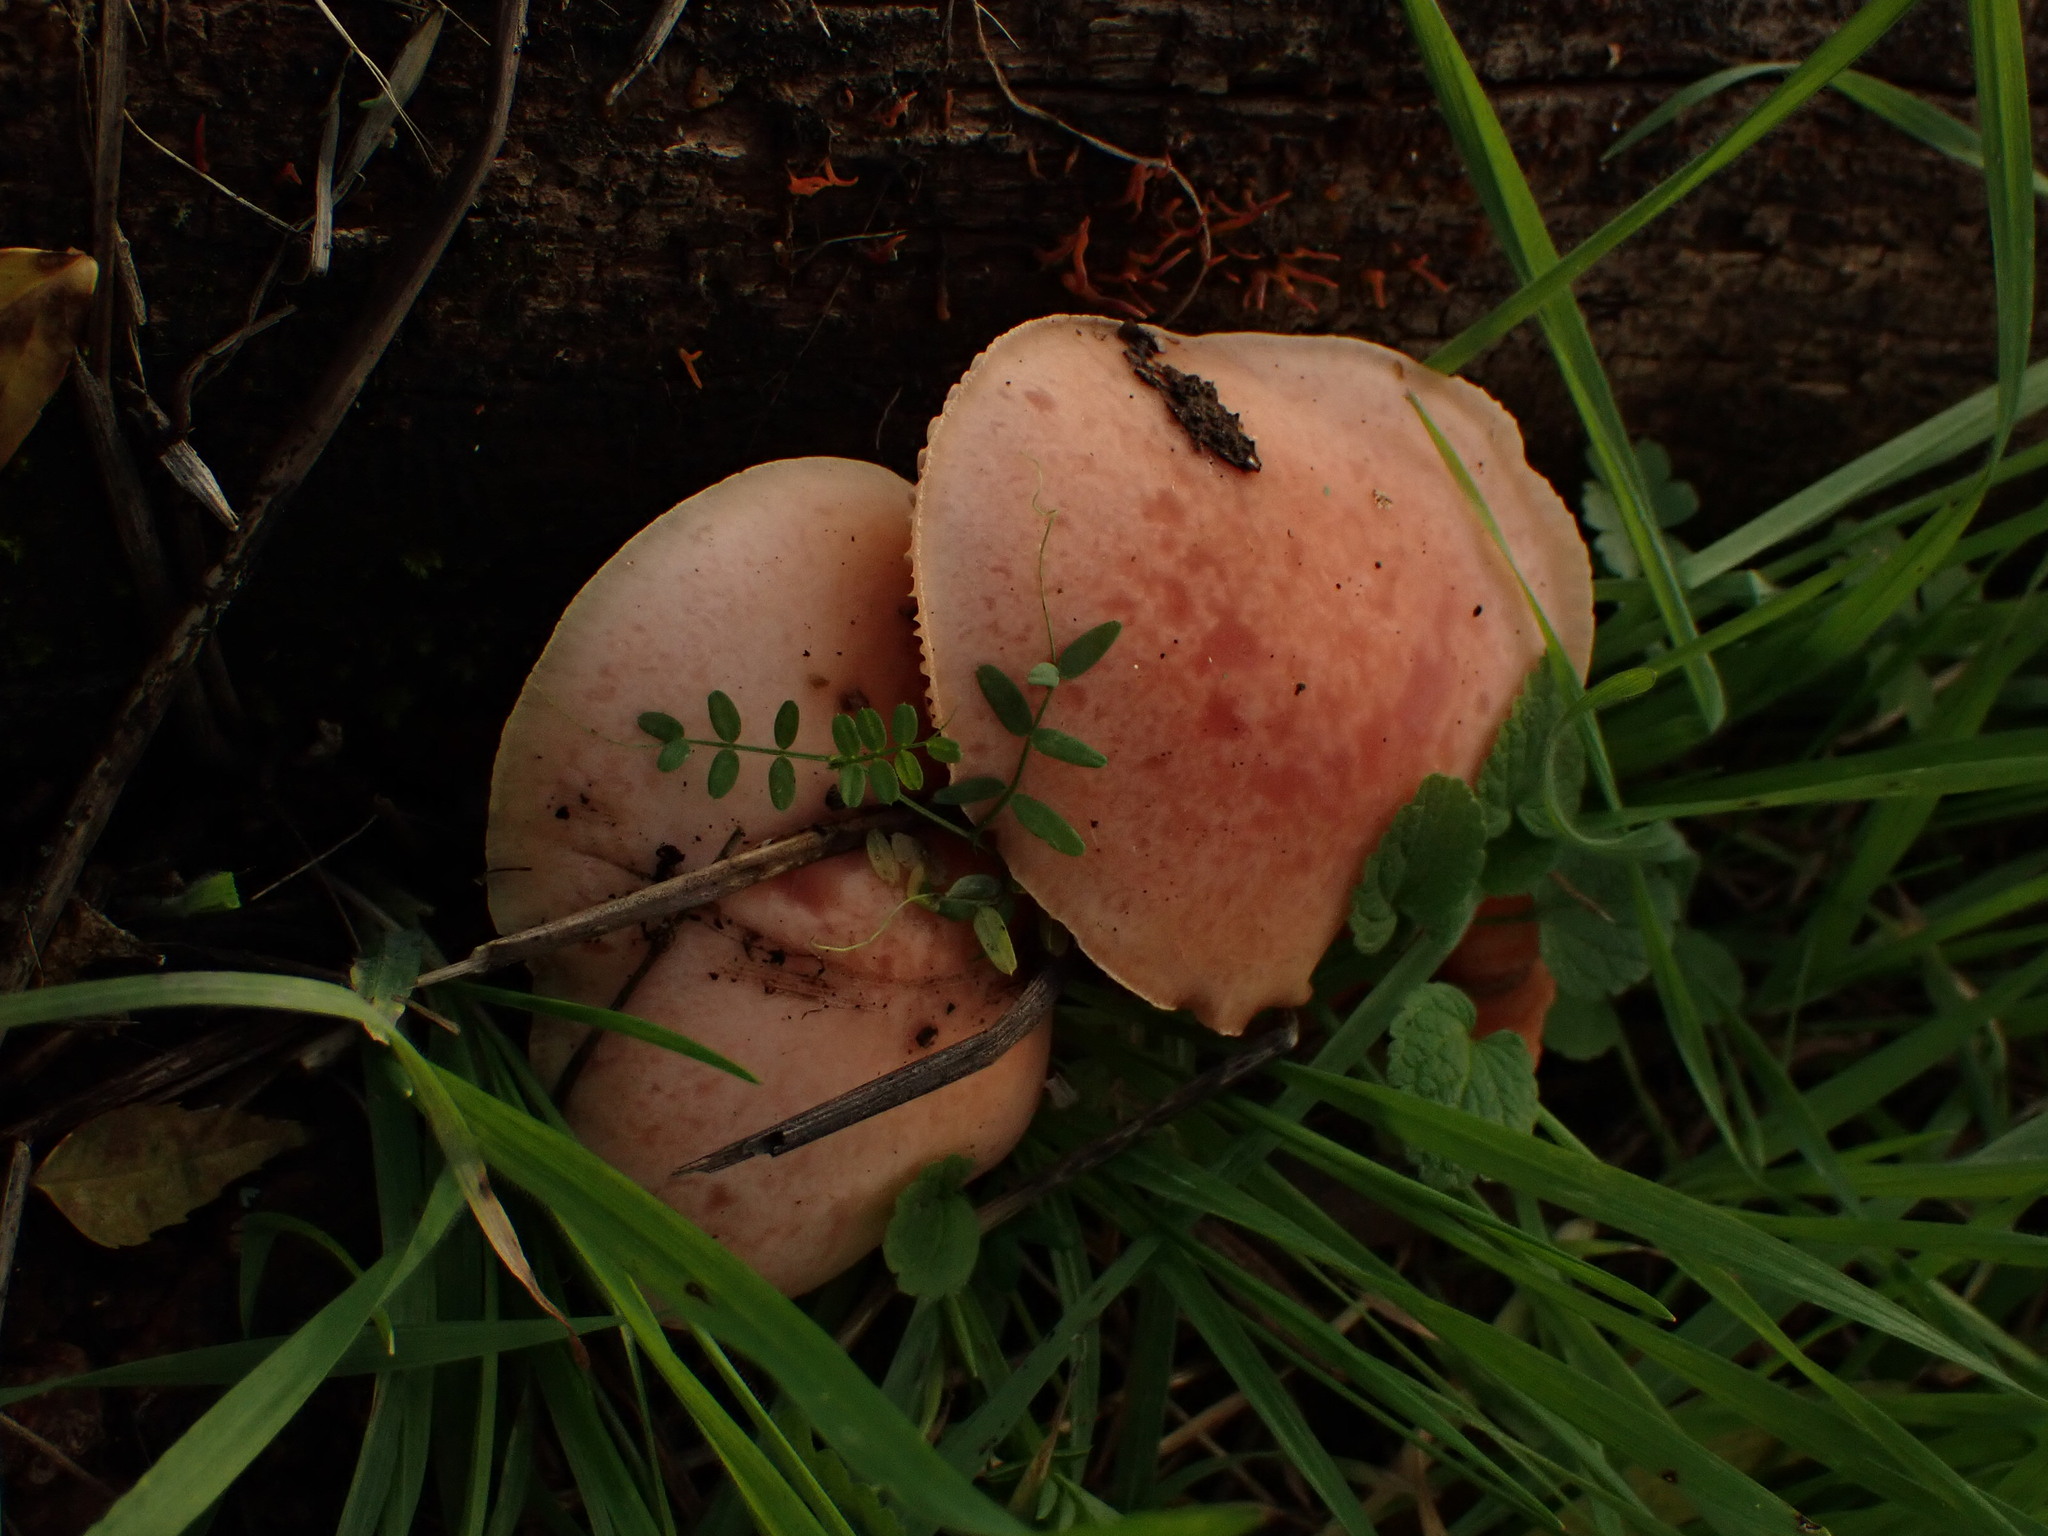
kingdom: Fungi
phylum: Basidiomycota
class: Agaricomycetes
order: Agaricales
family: Physalacriaceae
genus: Rhodotus
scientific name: Rhodotus palmatus
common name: Wrinkled peach
